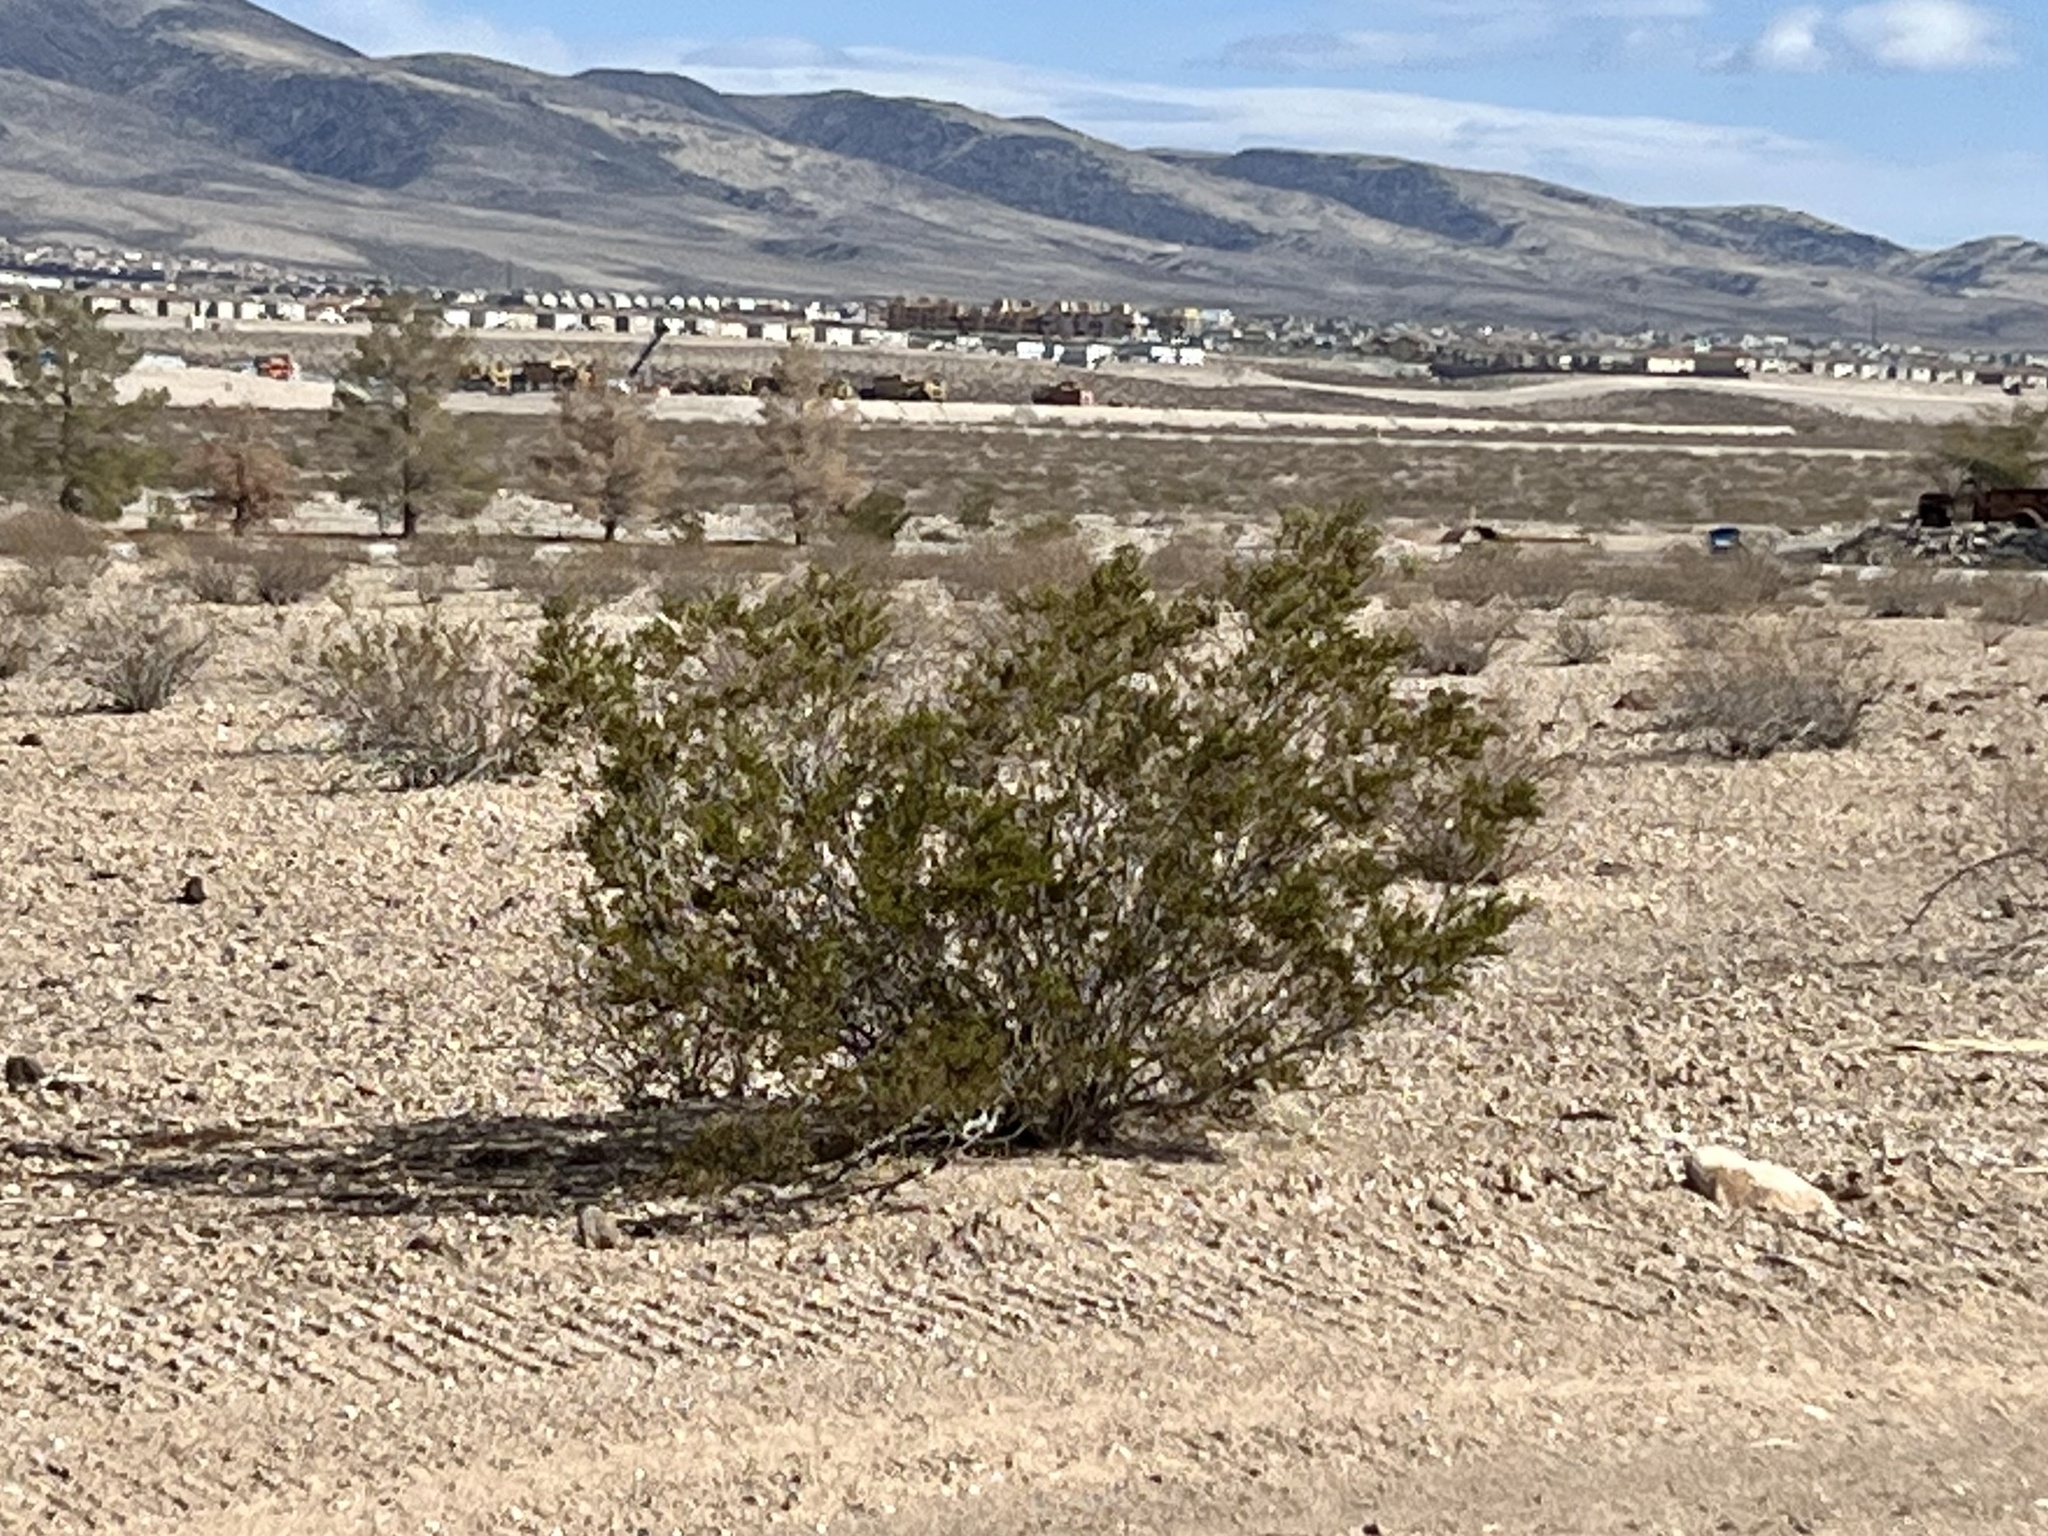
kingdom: Plantae
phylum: Tracheophyta
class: Magnoliopsida
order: Zygophyllales
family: Zygophyllaceae
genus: Larrea
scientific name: Larrea tridentata
